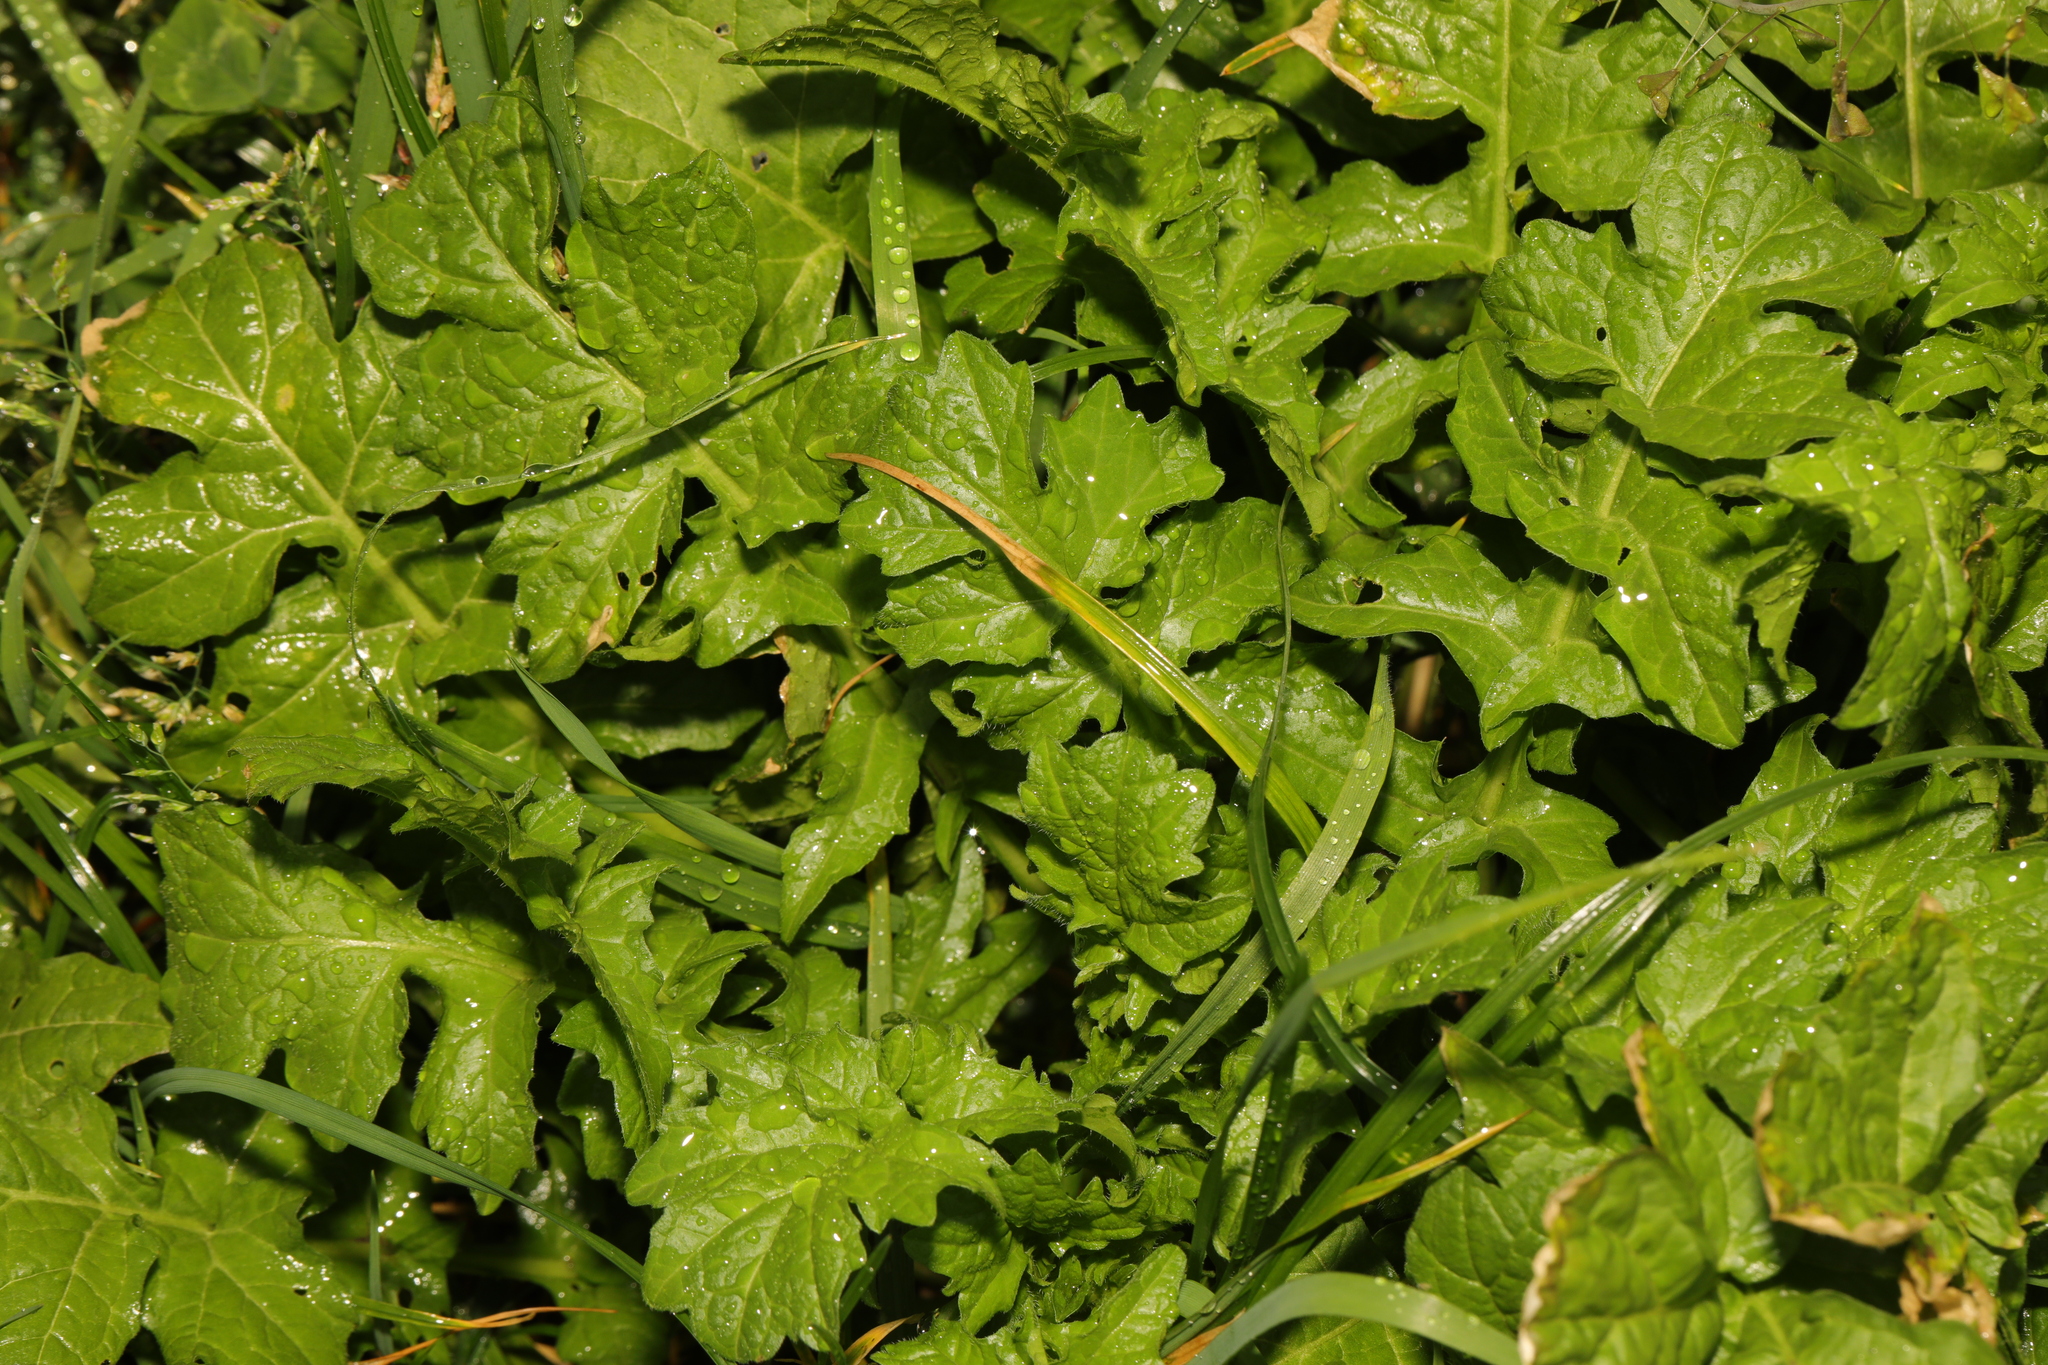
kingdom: Plantae
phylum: Tracheophyta
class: Magnoliopsida
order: Brassicales
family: Brassicaceae
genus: Sisymbrium
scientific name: Sisymbrium officinale
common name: Hedge mustard
